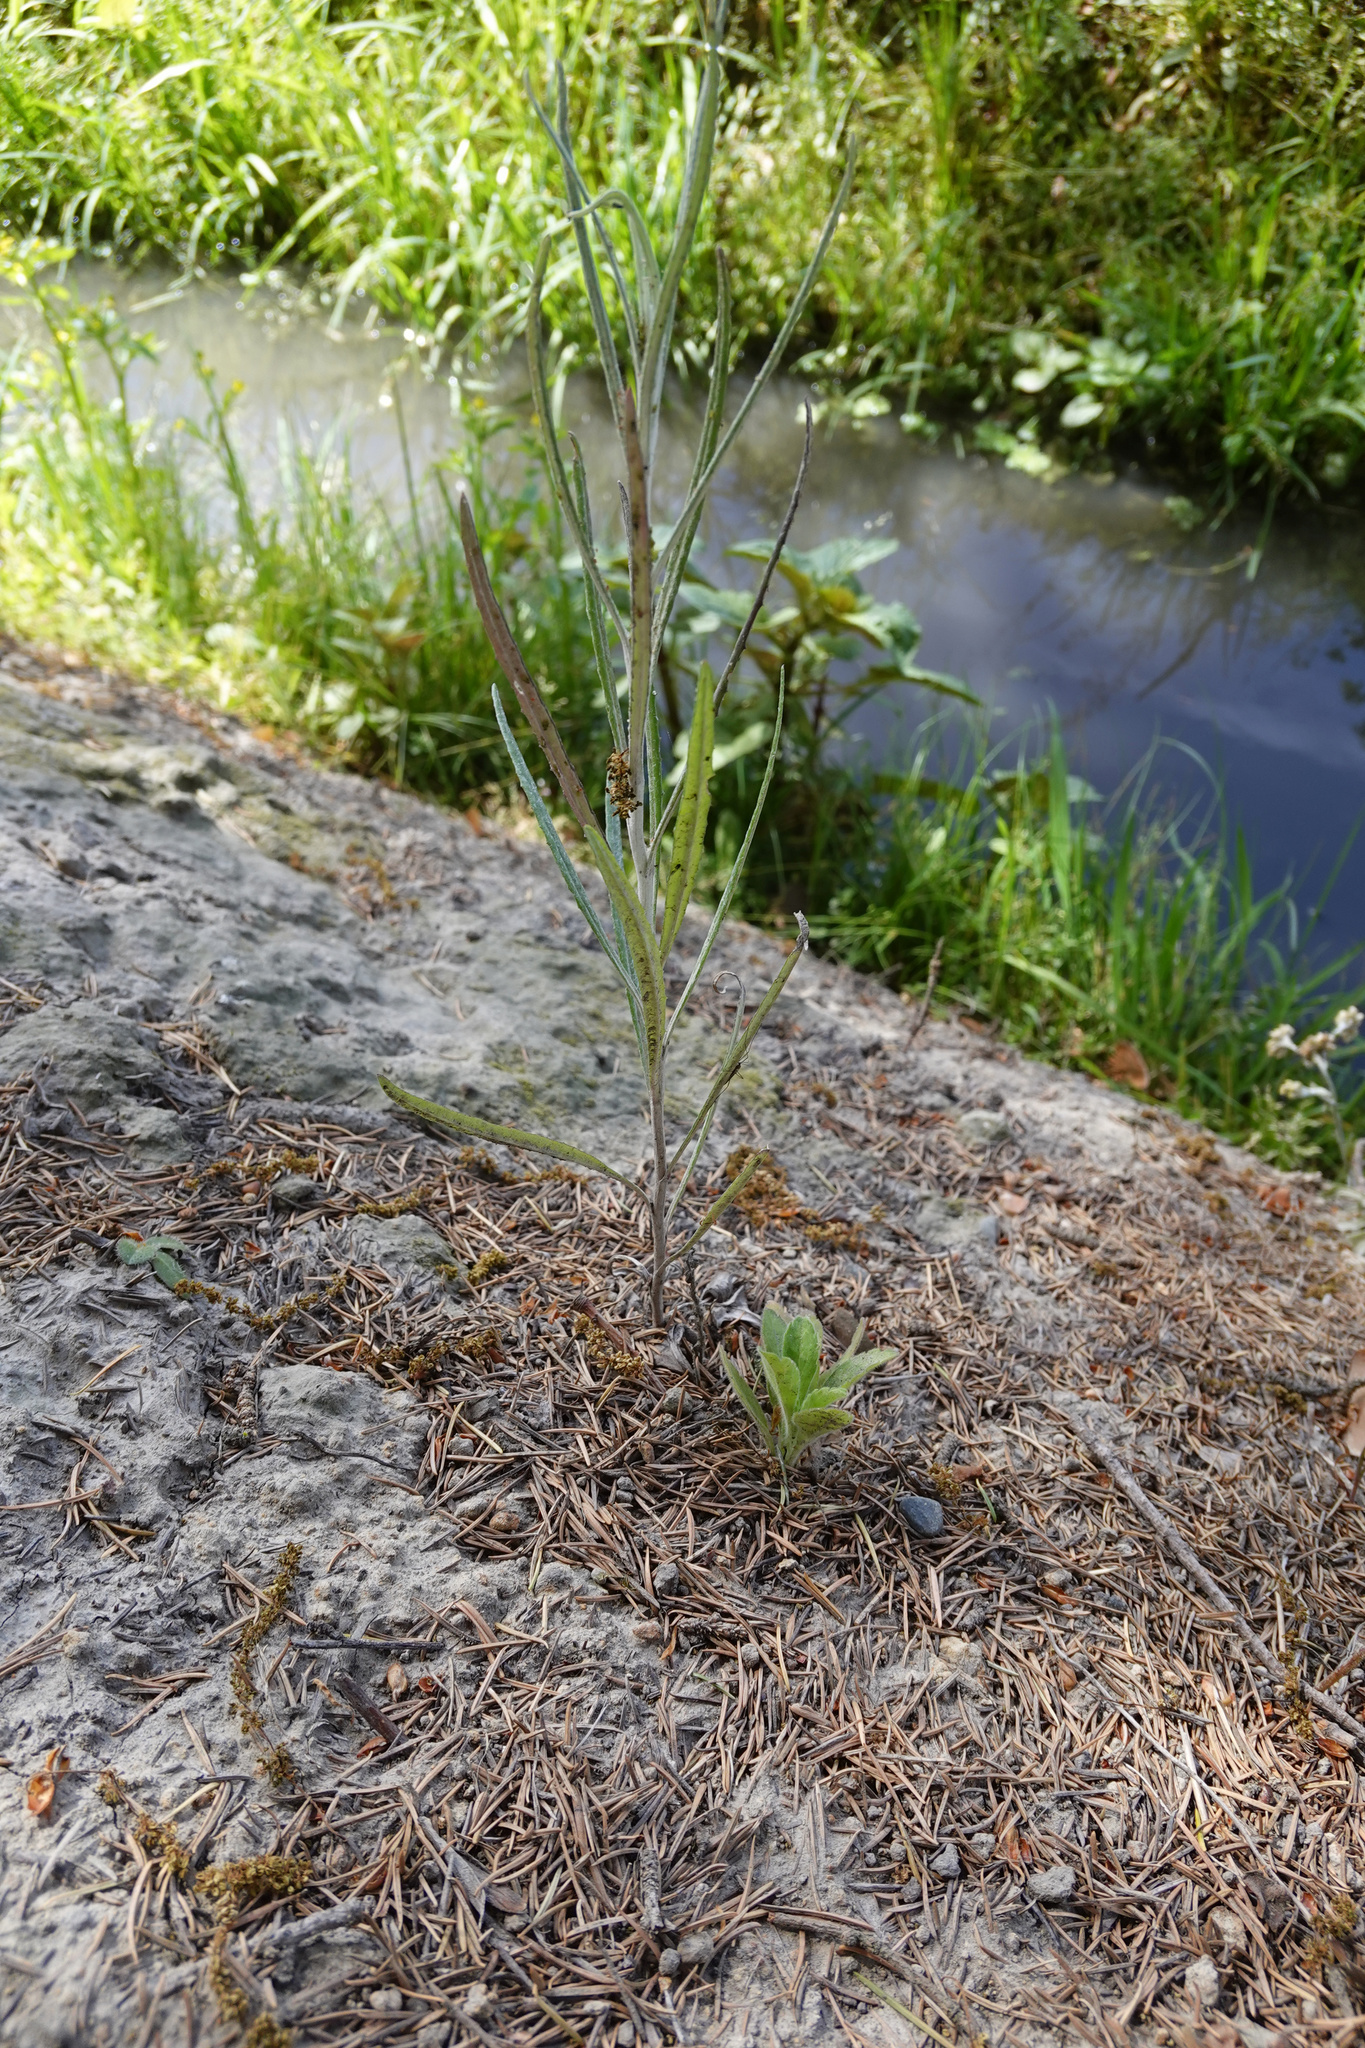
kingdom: Plantae
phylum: Tracheophyta
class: Magnoliopsida
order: Asterales
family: Asteraceae
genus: Senecio
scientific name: Senecio quadridentatus
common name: Cotton fireweed
